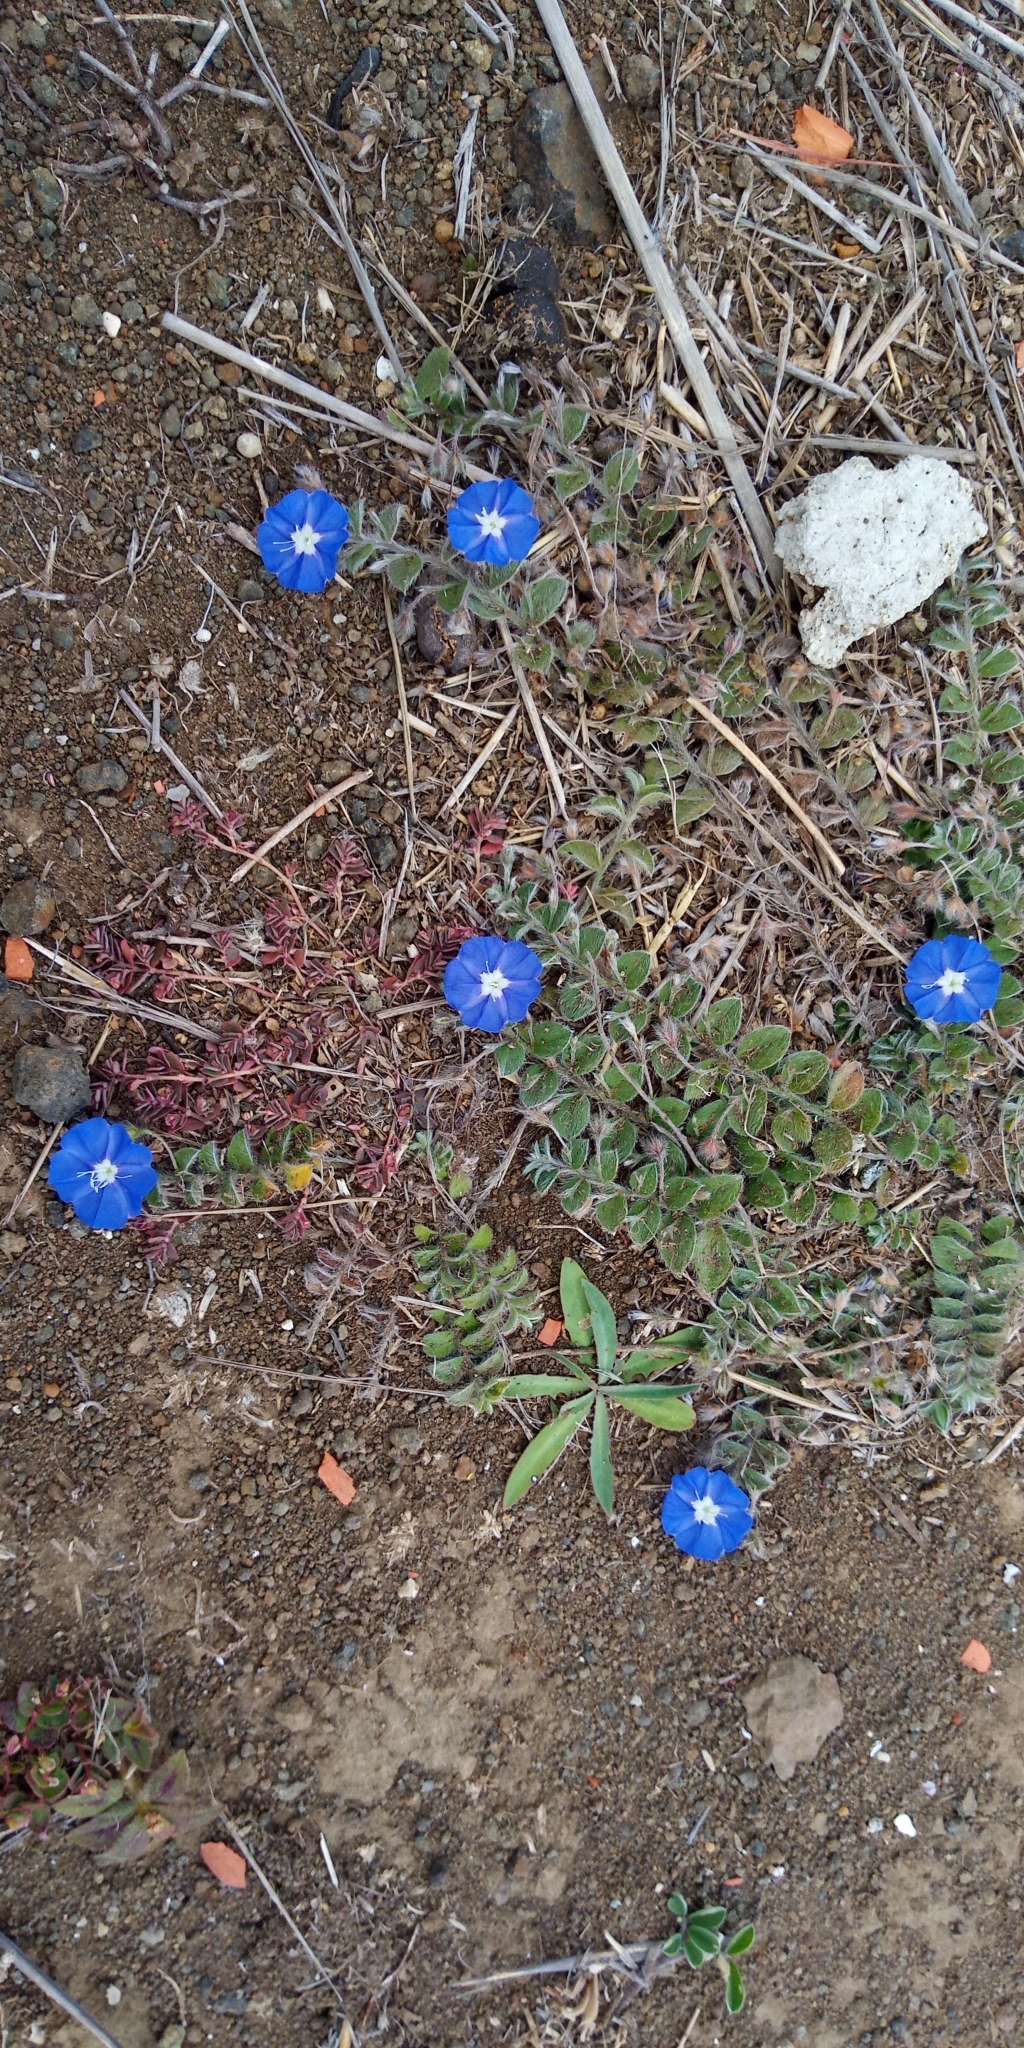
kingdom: Plantae
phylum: Tracheophyta
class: Magnoliopsida
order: Solanales
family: Convolvulaceae
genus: Evolvulus
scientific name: Evolvulus alsinoides
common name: Slender dwarf morning-glory
